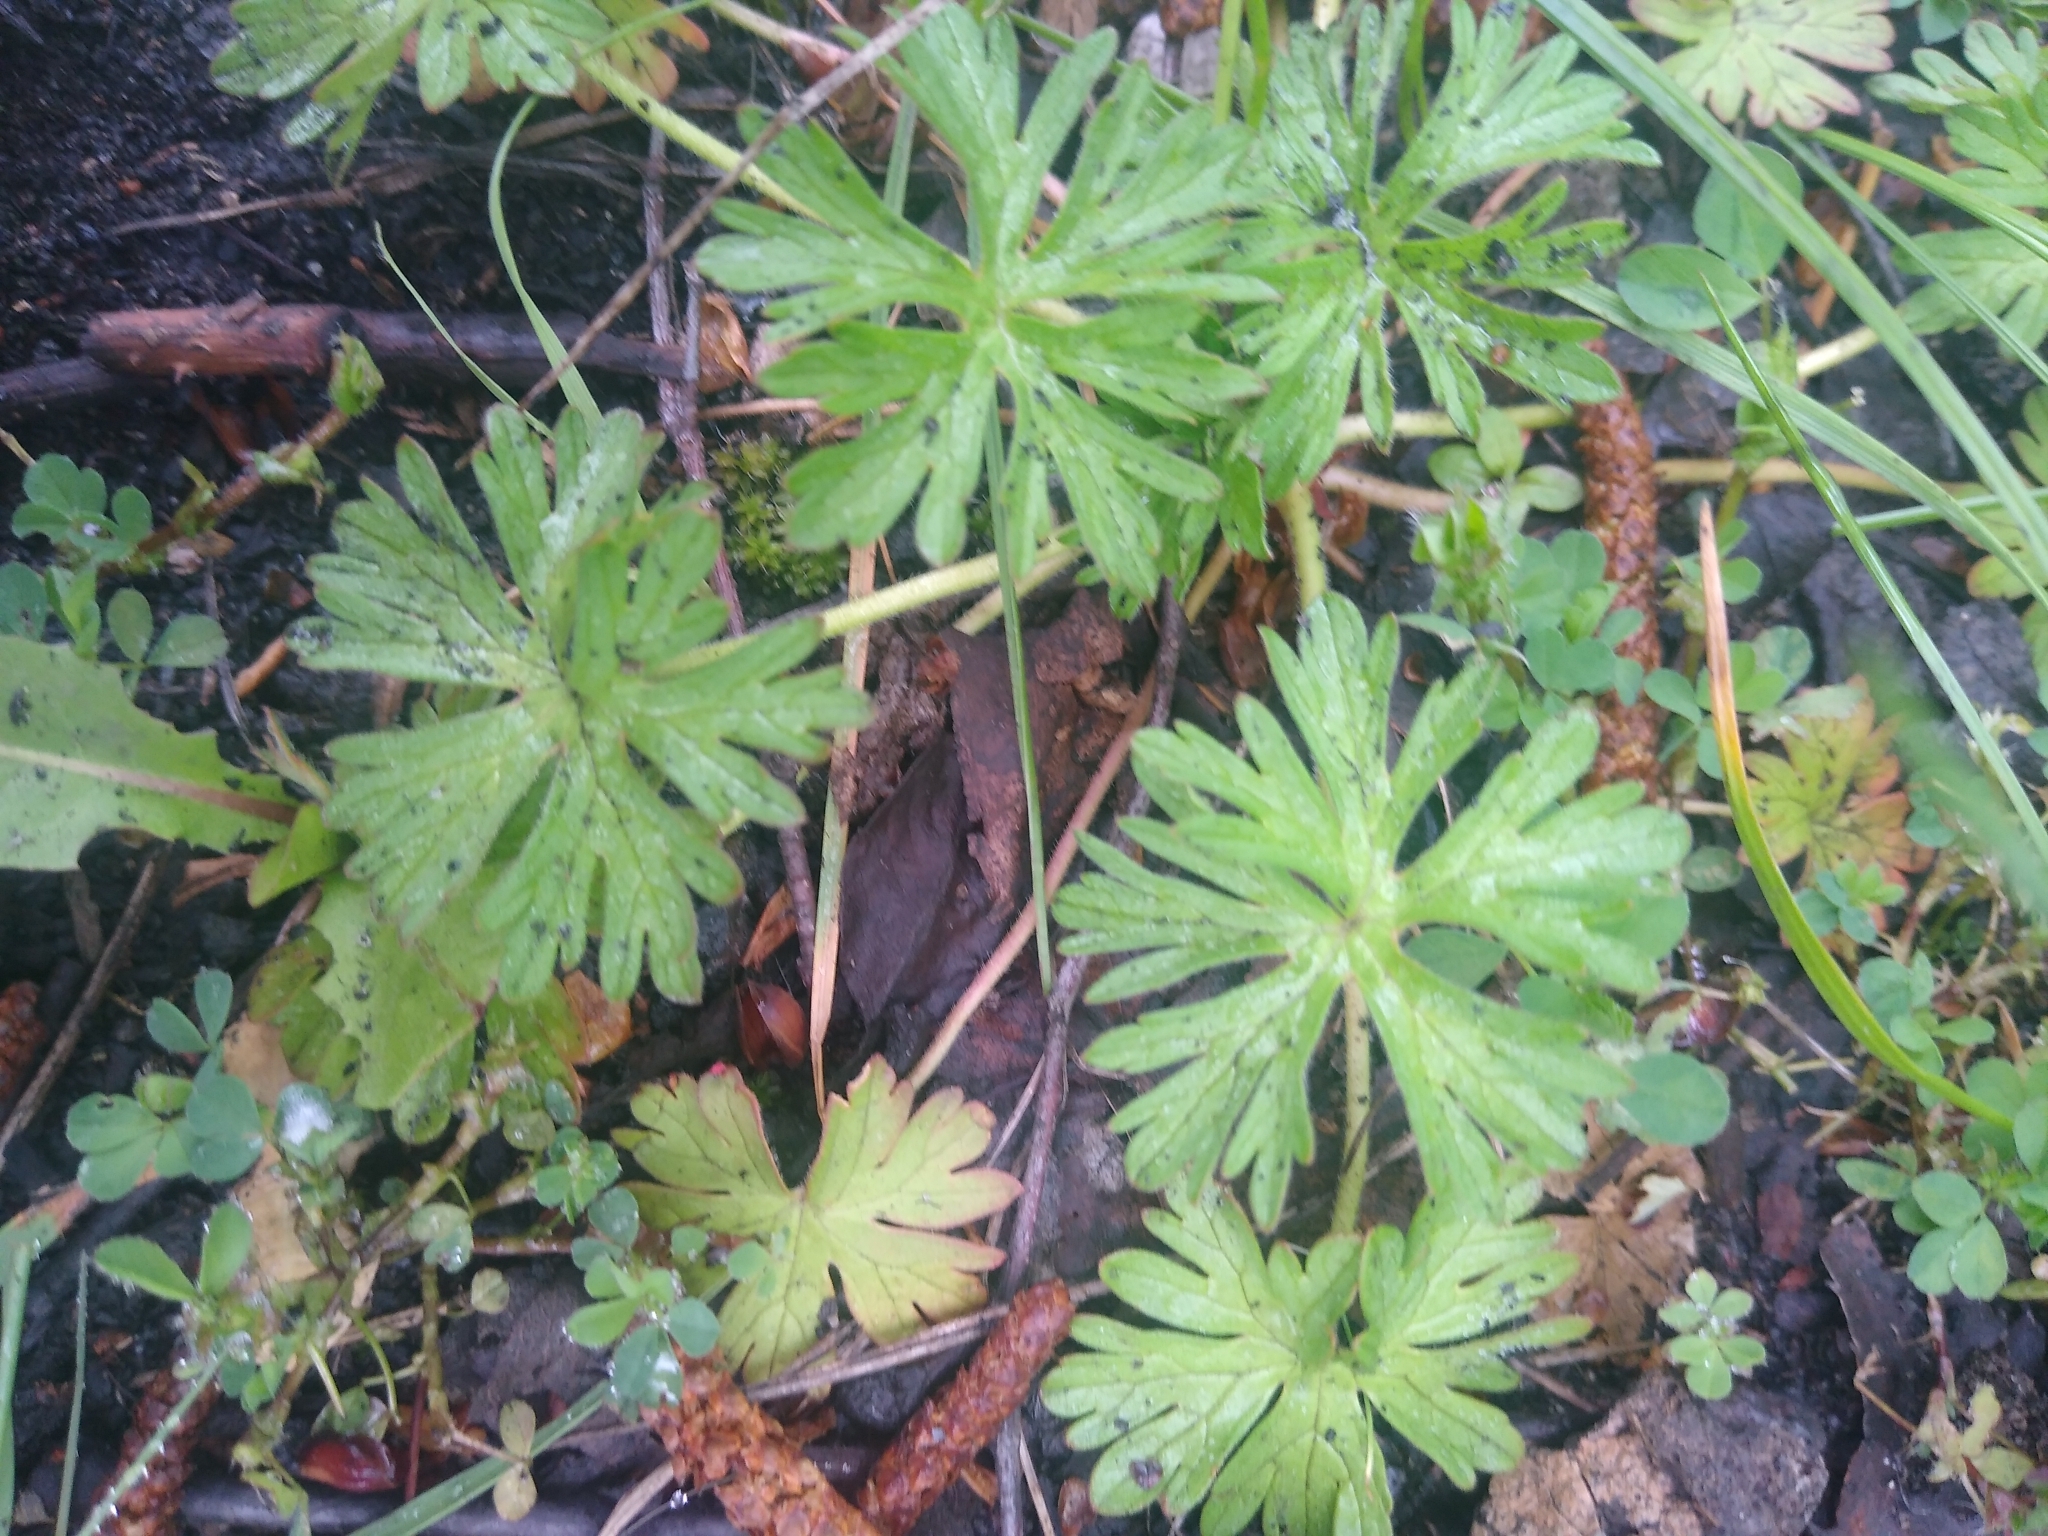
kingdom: Plantae
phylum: Tracheophyta
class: Magnoliopsida
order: Geraniales
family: Geraniaceae
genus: Geranium
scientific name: Geranium dissectum
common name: Cut-leaved crane's-bill
